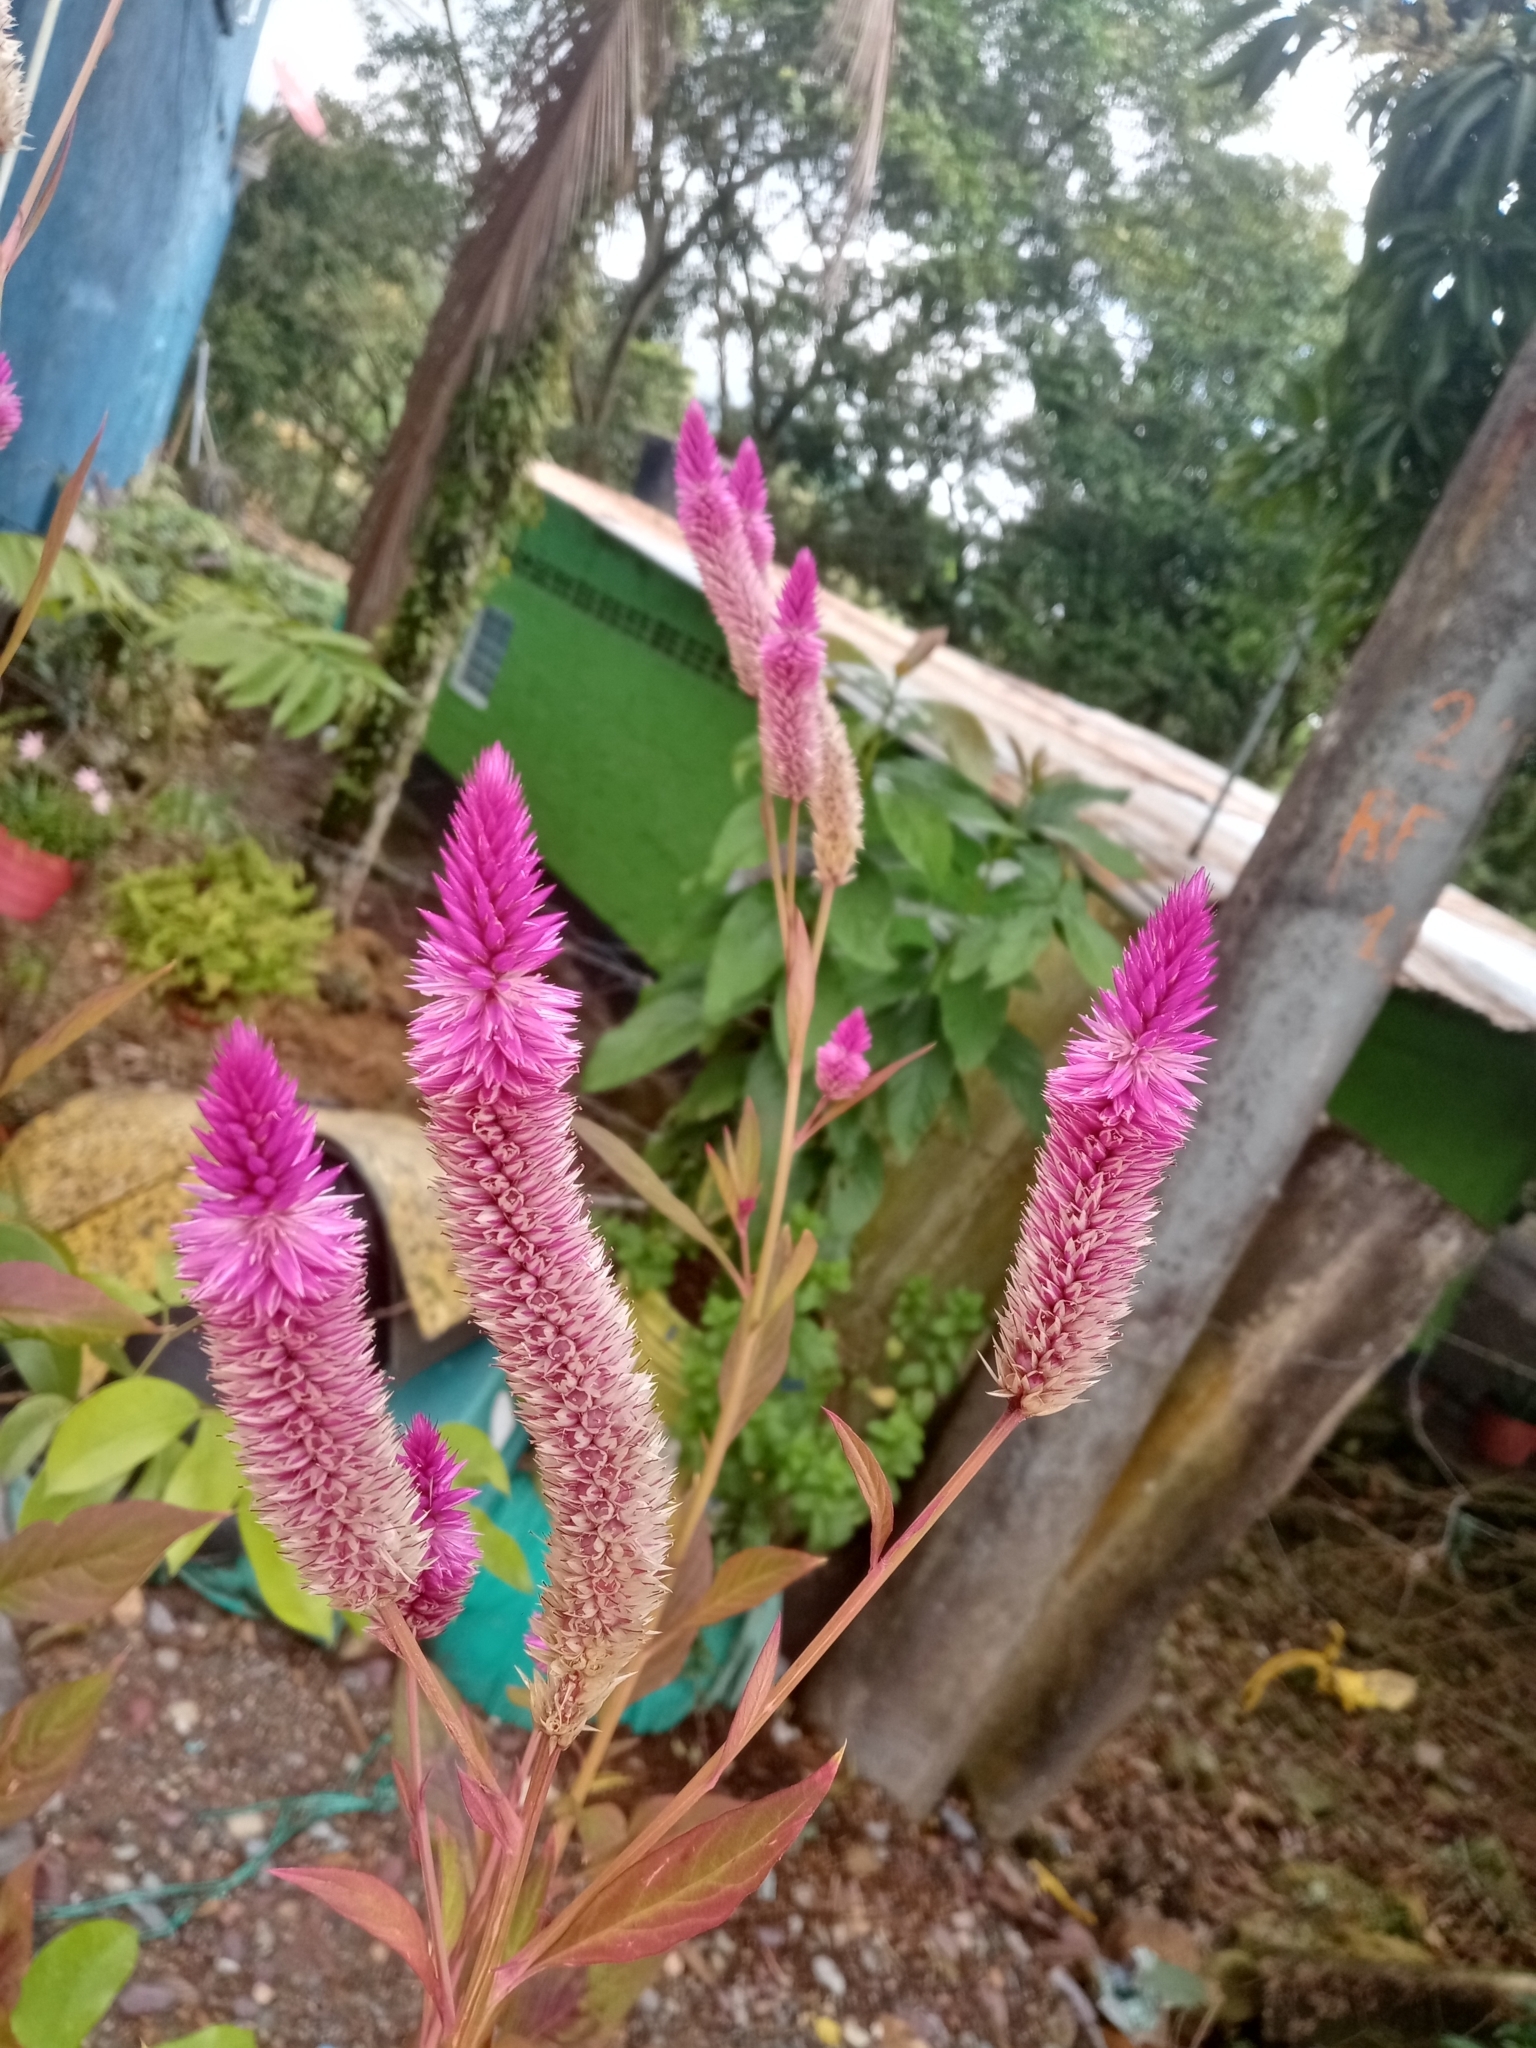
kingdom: Plantae
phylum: Tracheophyta
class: Magnoliopsida
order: Caryophyllales
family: Amaranthaceae
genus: Celosia
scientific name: Celosia spicata
